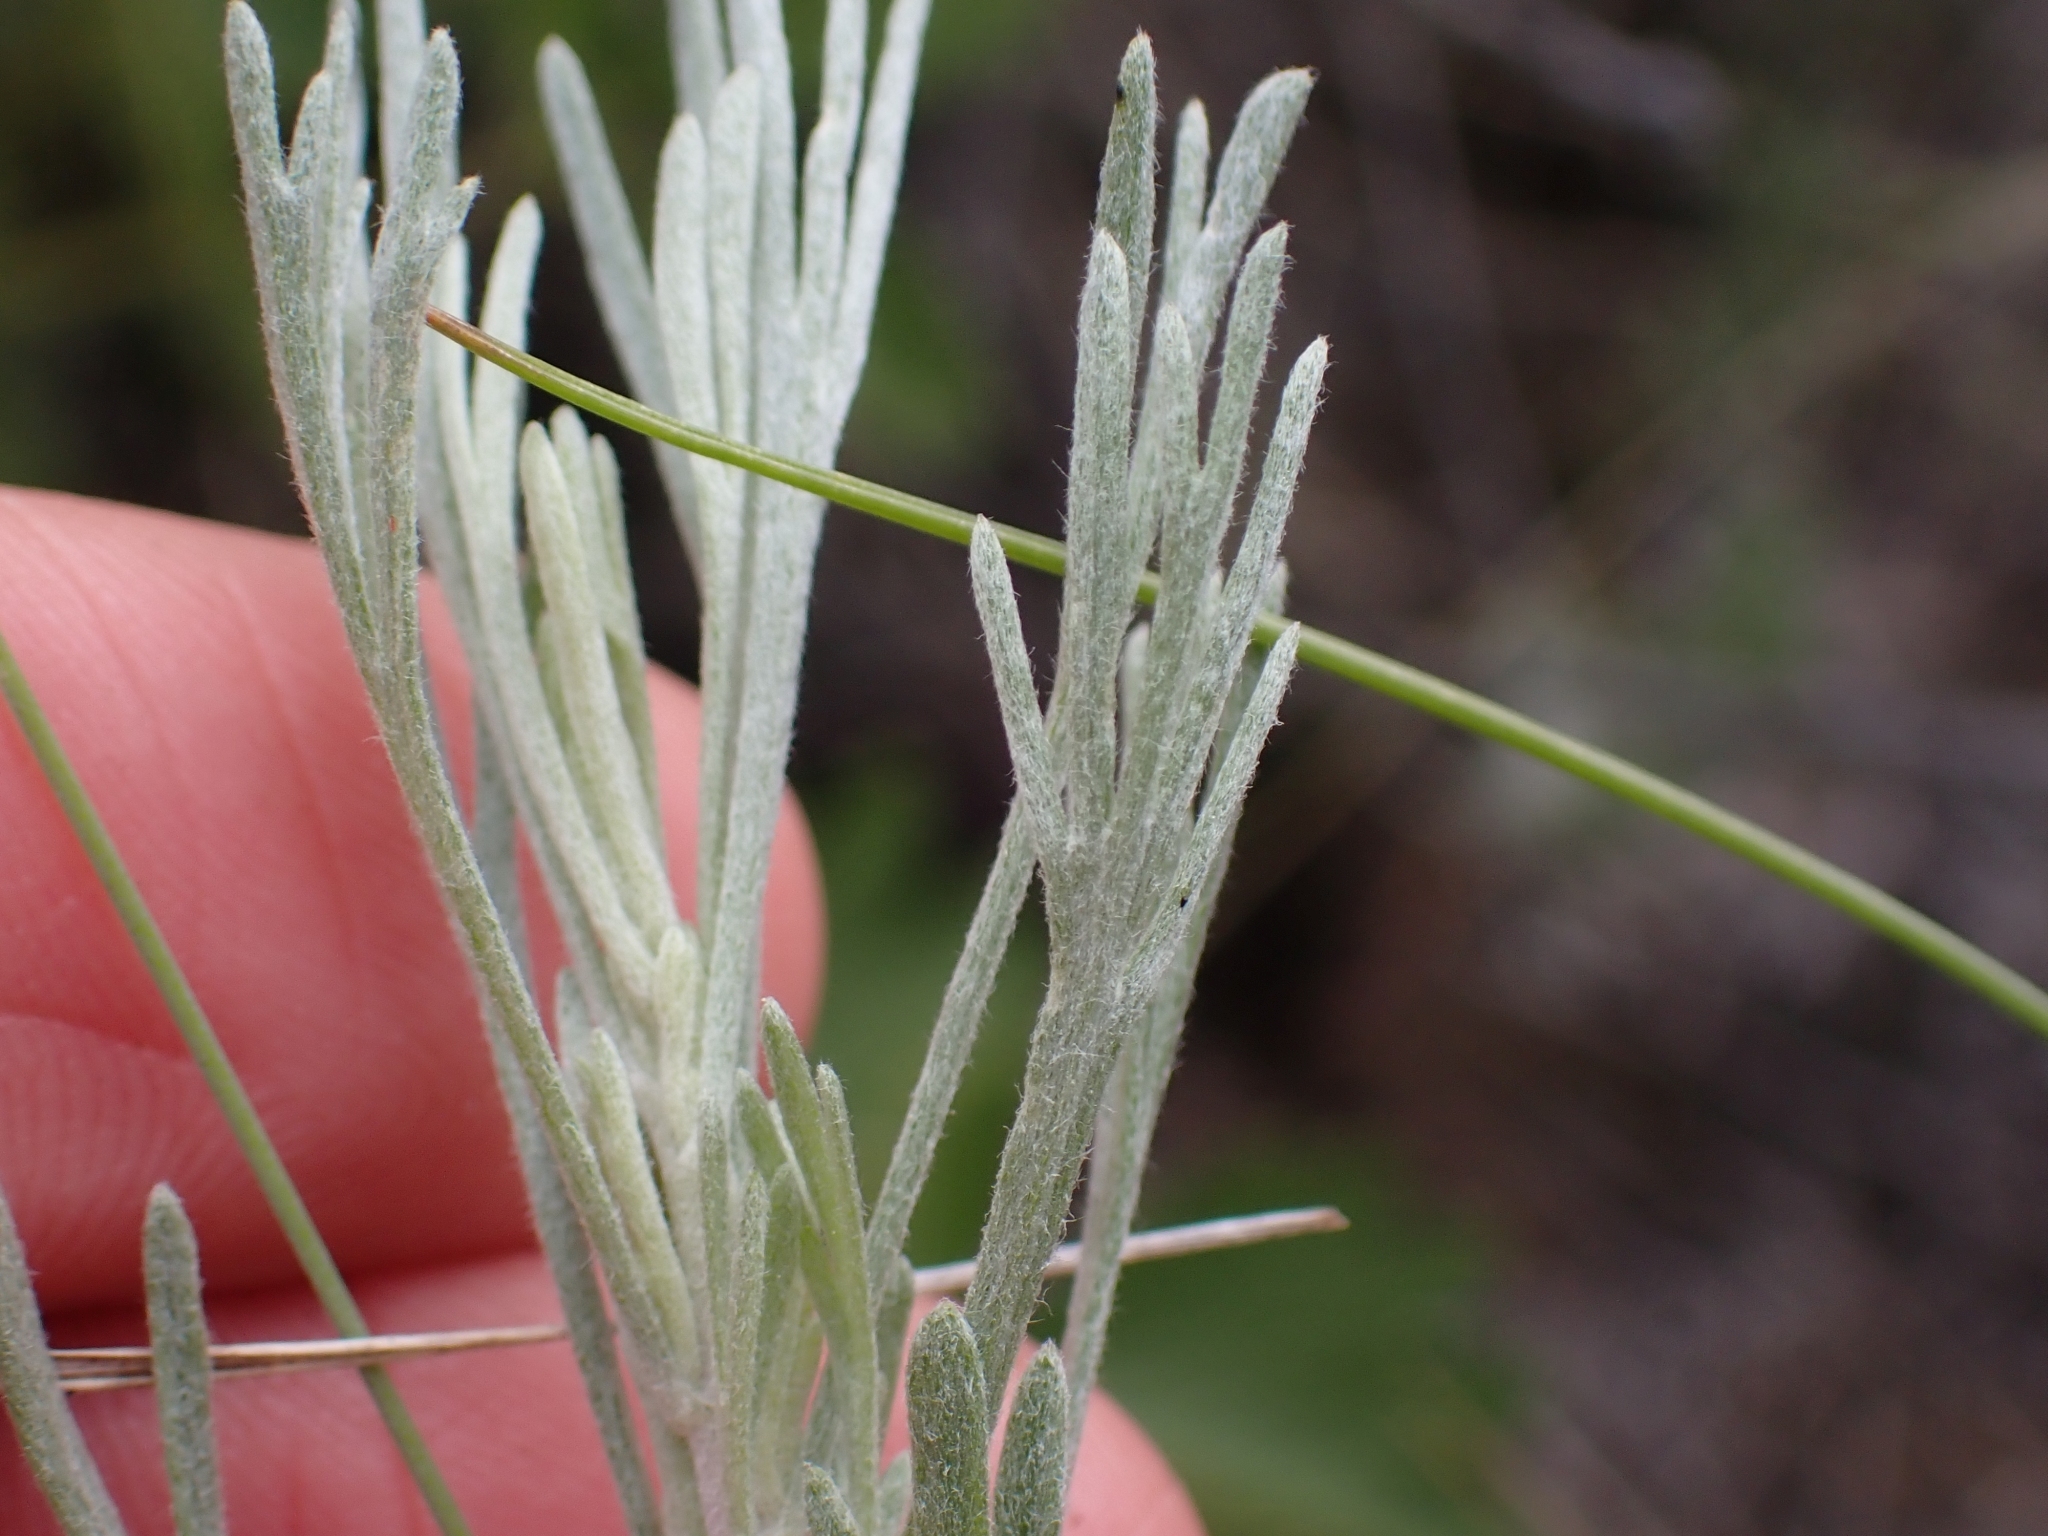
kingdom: Plantae
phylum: Tracheophyta
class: Magnoliopsida
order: Asterales
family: Asteraceae
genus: Artemisia
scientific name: Artemisia tripartita
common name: Three-tip sagebrush
